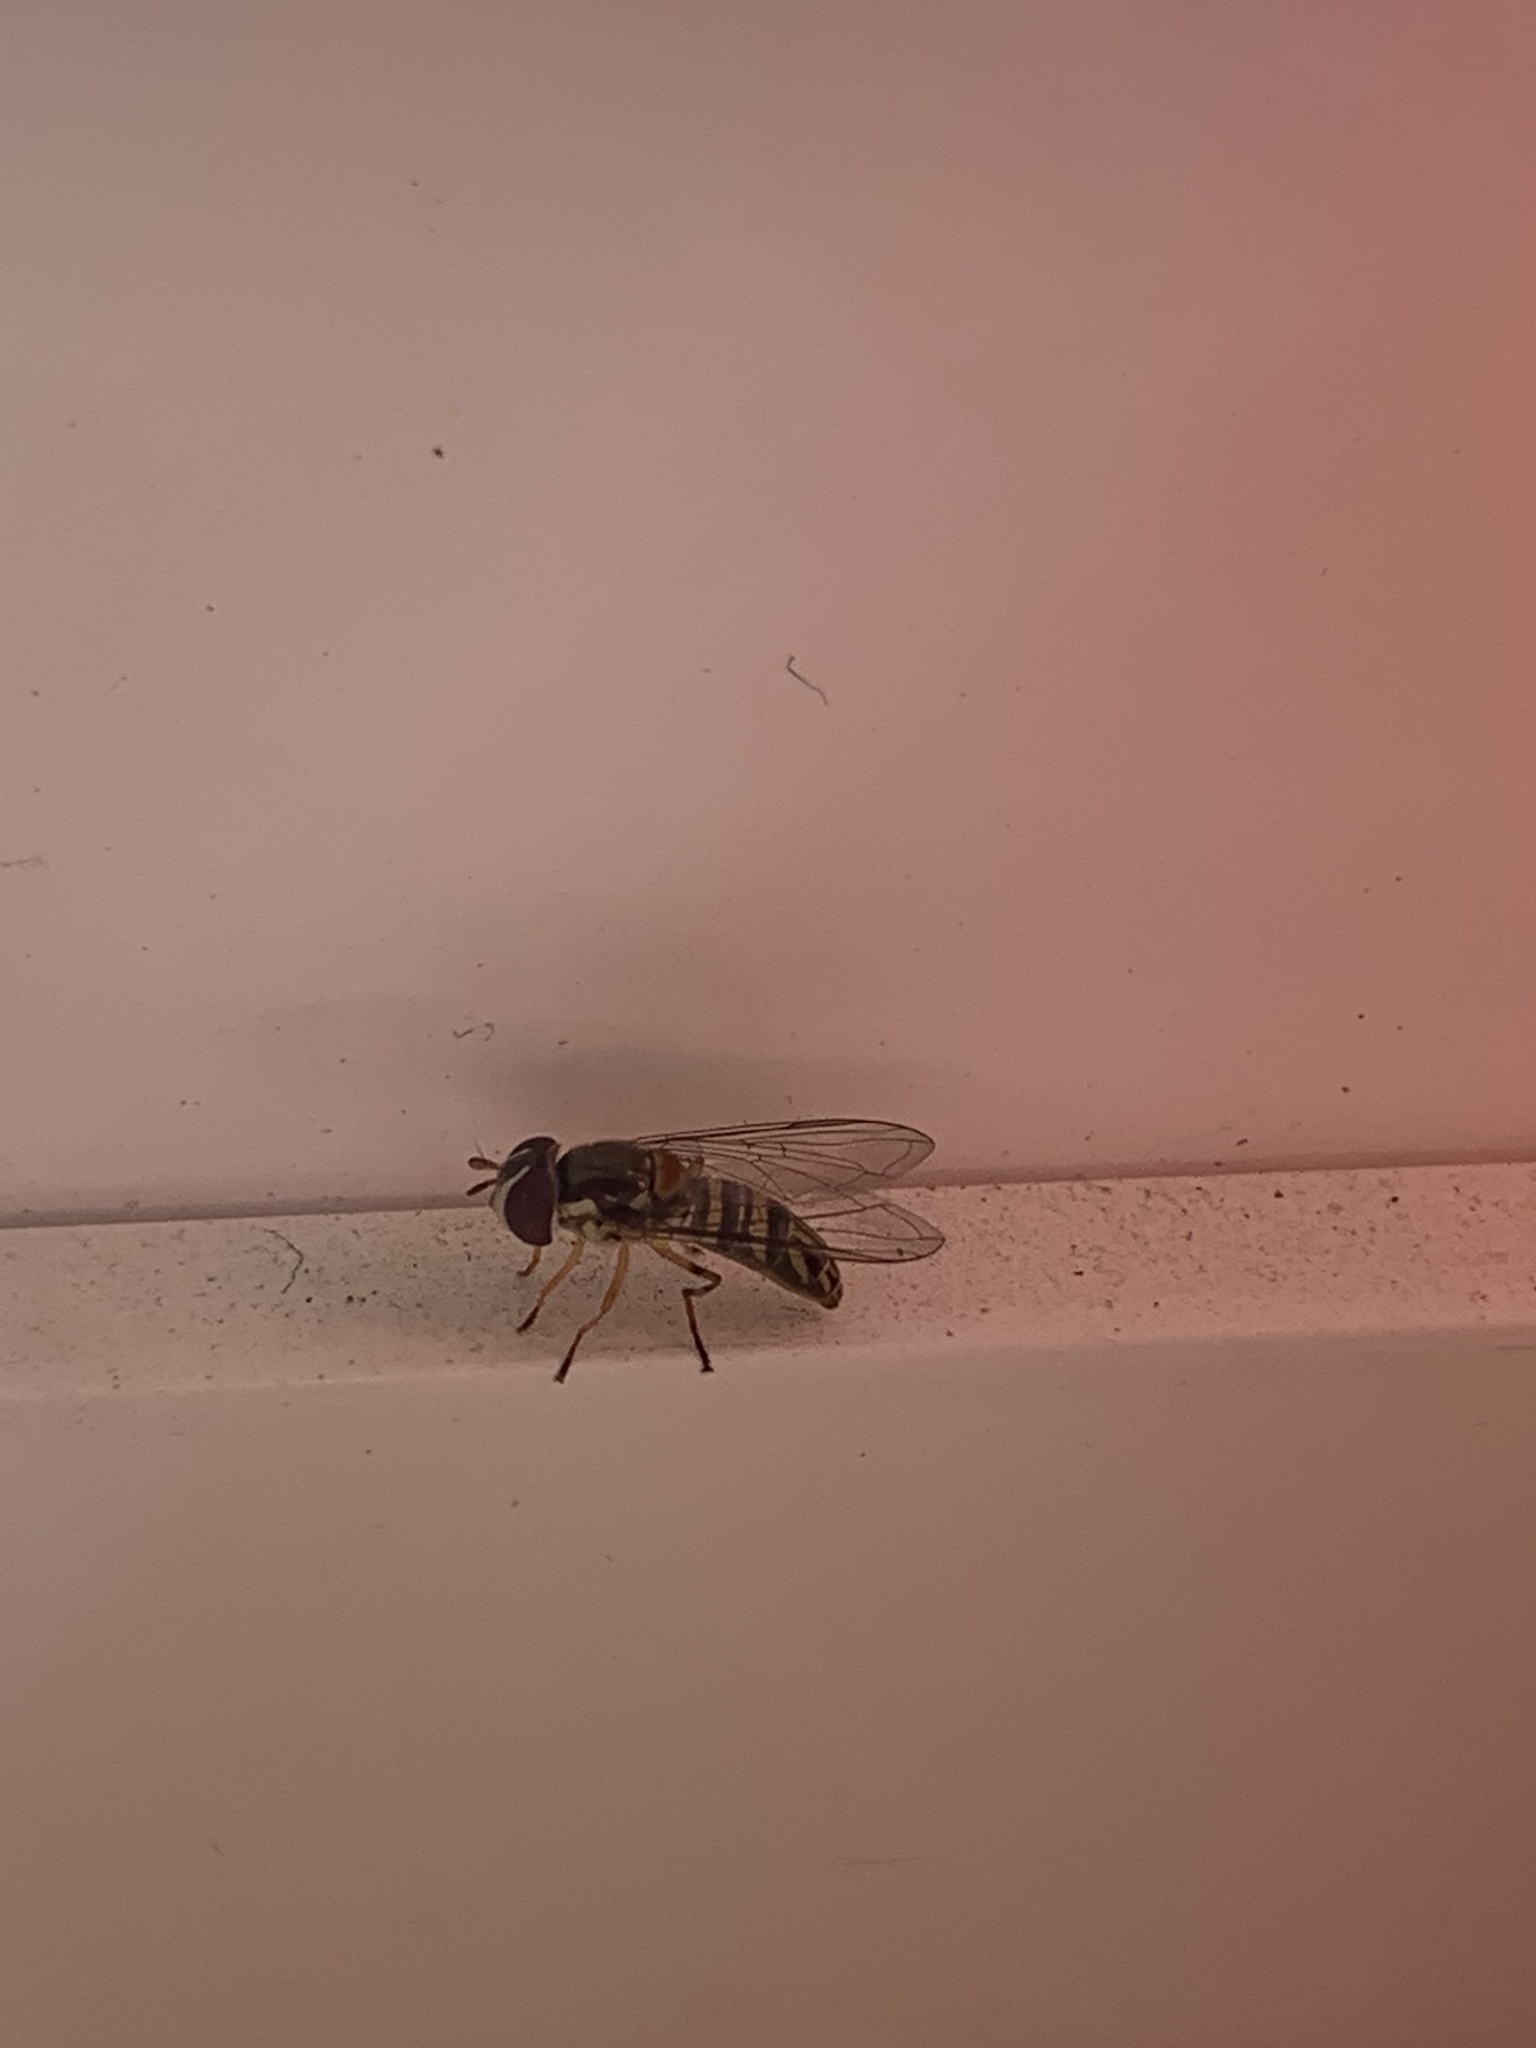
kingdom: Animalia
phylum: Arthropoda
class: Insecta
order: Diptera
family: Syrphidae
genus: Allograpta
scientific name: Allograpta obliqua
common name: Common oblique syrphid
